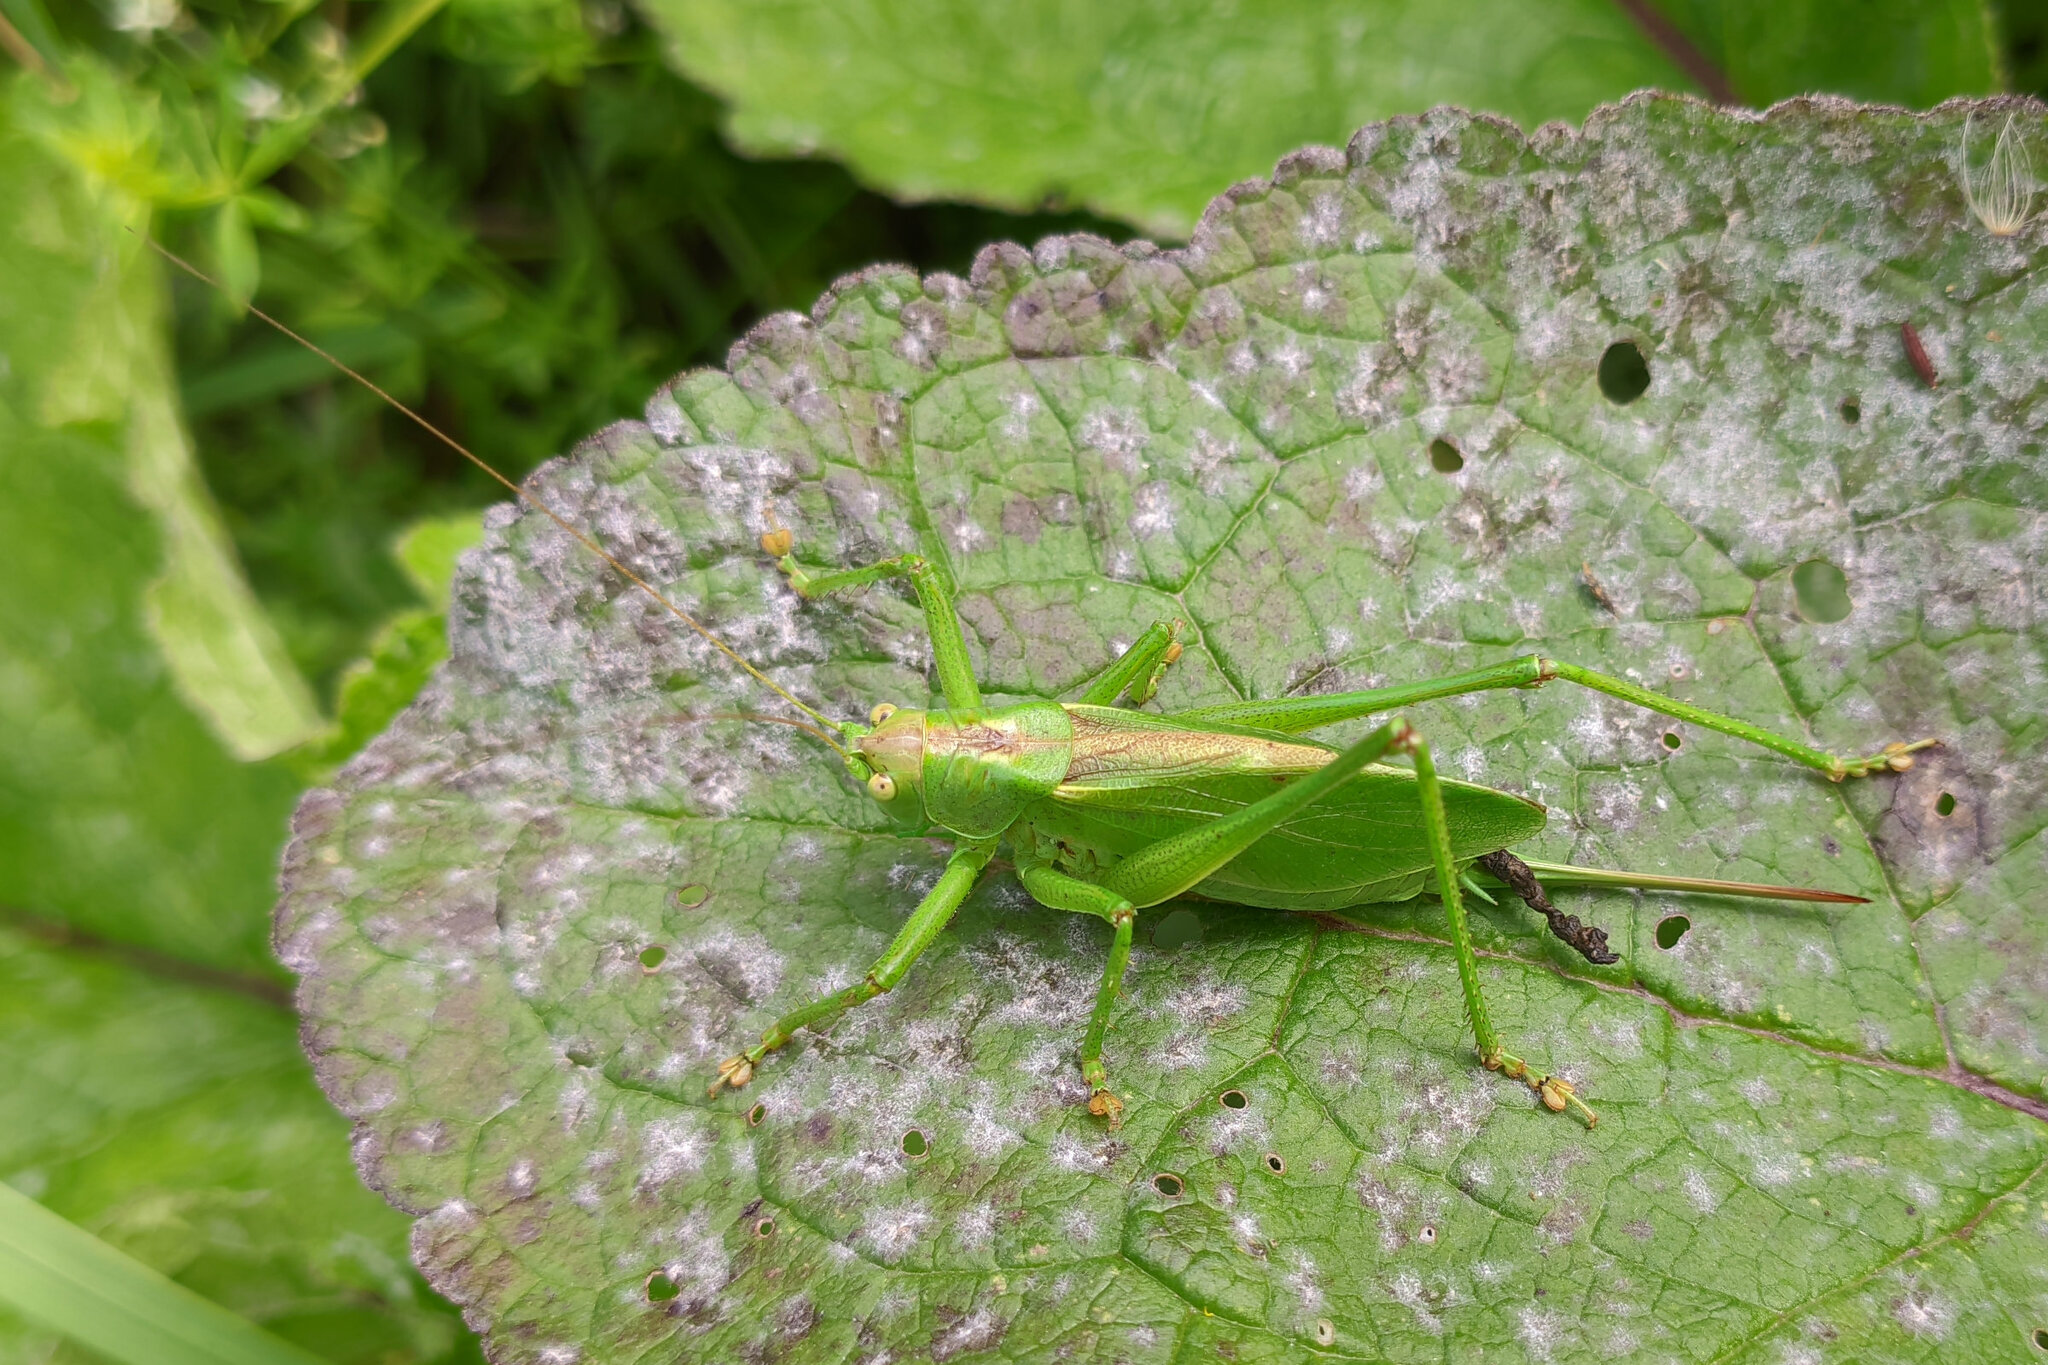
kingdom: Animalia
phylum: Arthropoda
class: Insecta
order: Orthoptera
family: Tettigoniidae
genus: Tettigonia
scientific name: Tettigonia cantans
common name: Upland green bush-cricket
